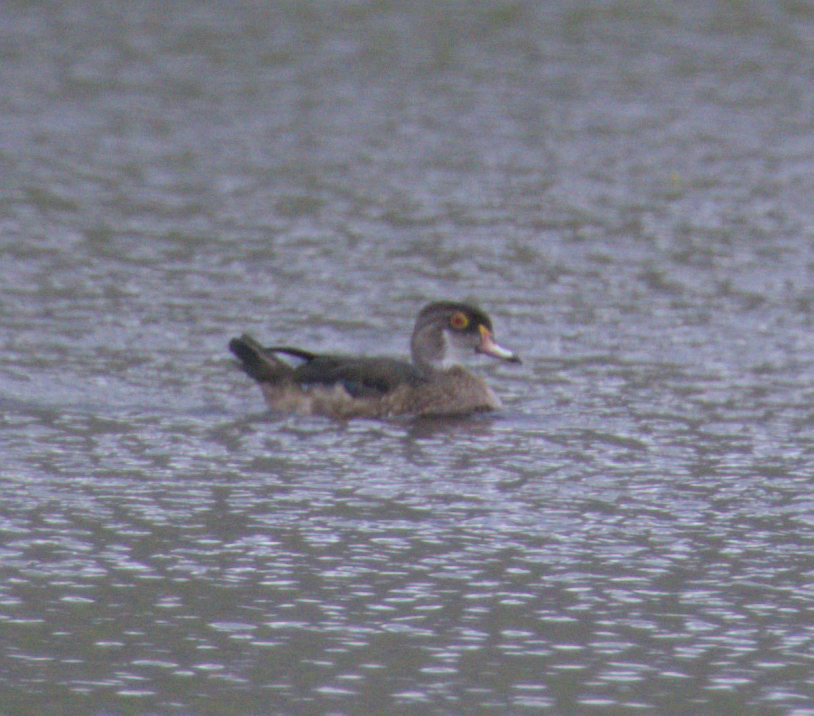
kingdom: Animalia
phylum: Chordata
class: Aves
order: Anseriformes
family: Anatidae
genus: Aix
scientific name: Aix sponsa
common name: Wood duck
